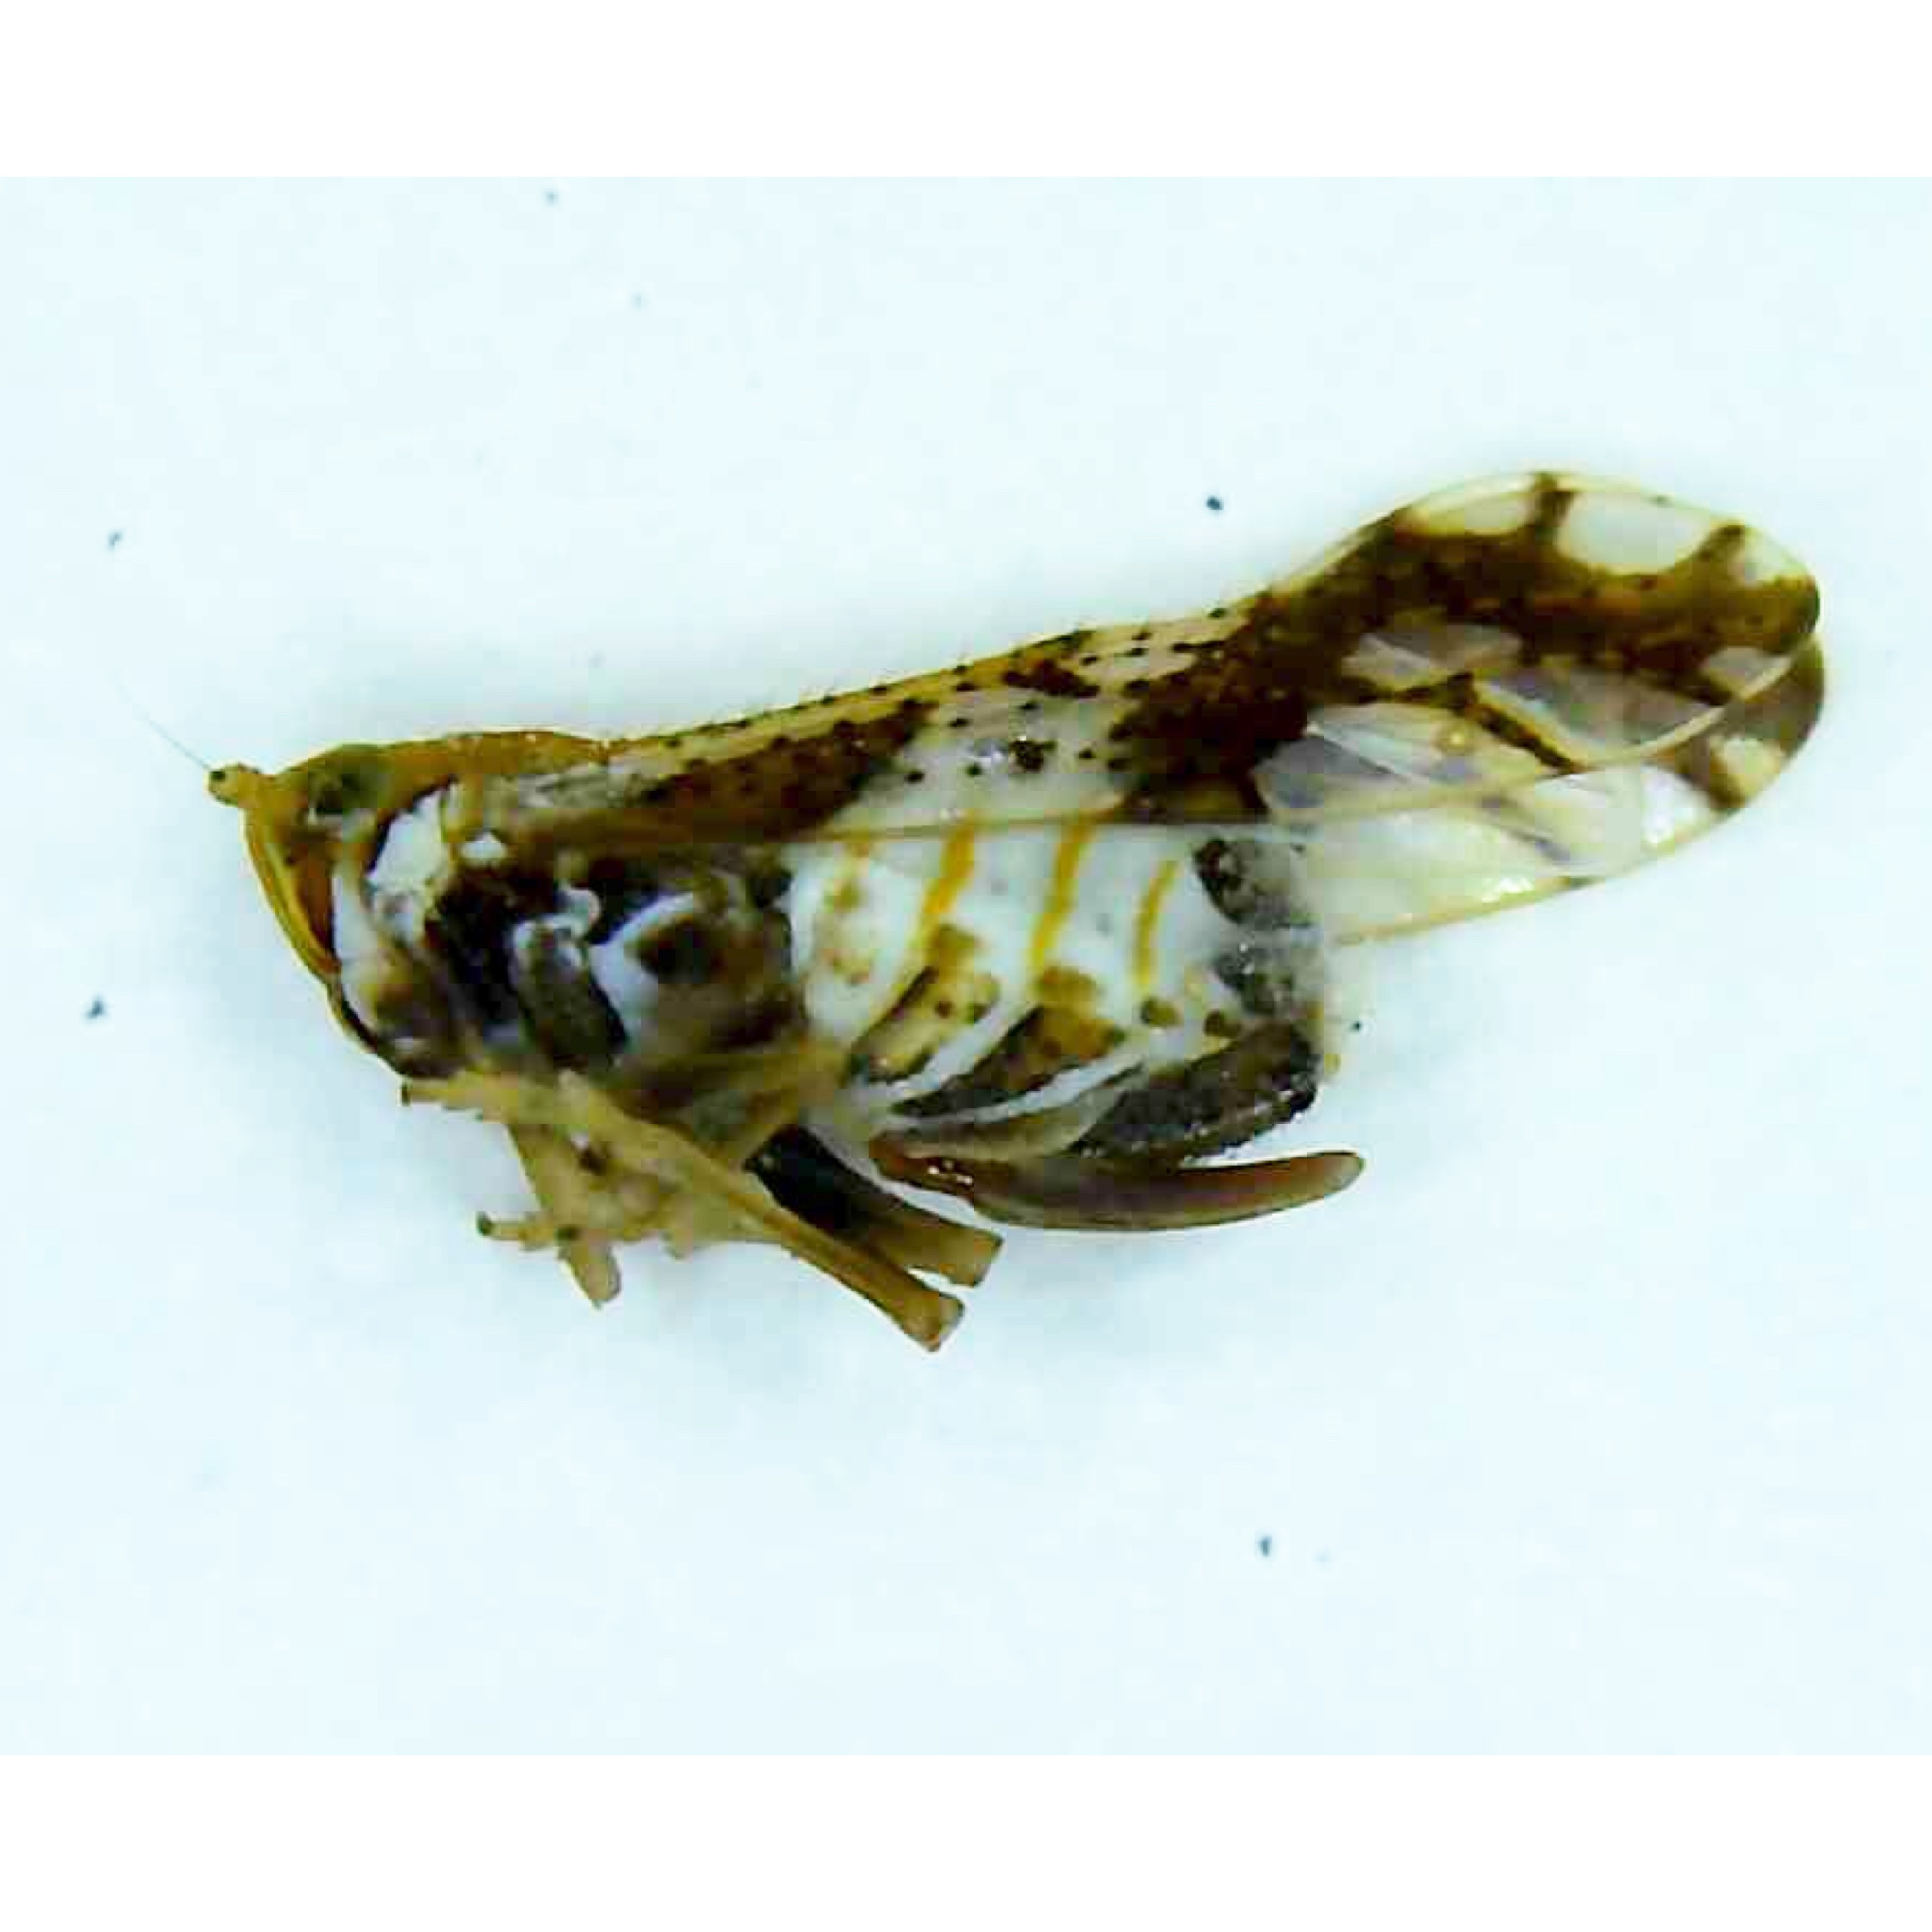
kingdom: Animalia
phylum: Arthropoda
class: Insecta
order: Hemiptera
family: Delphacidae
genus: Liburniella
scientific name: Liburniella ornata
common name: Ornate planthopper
